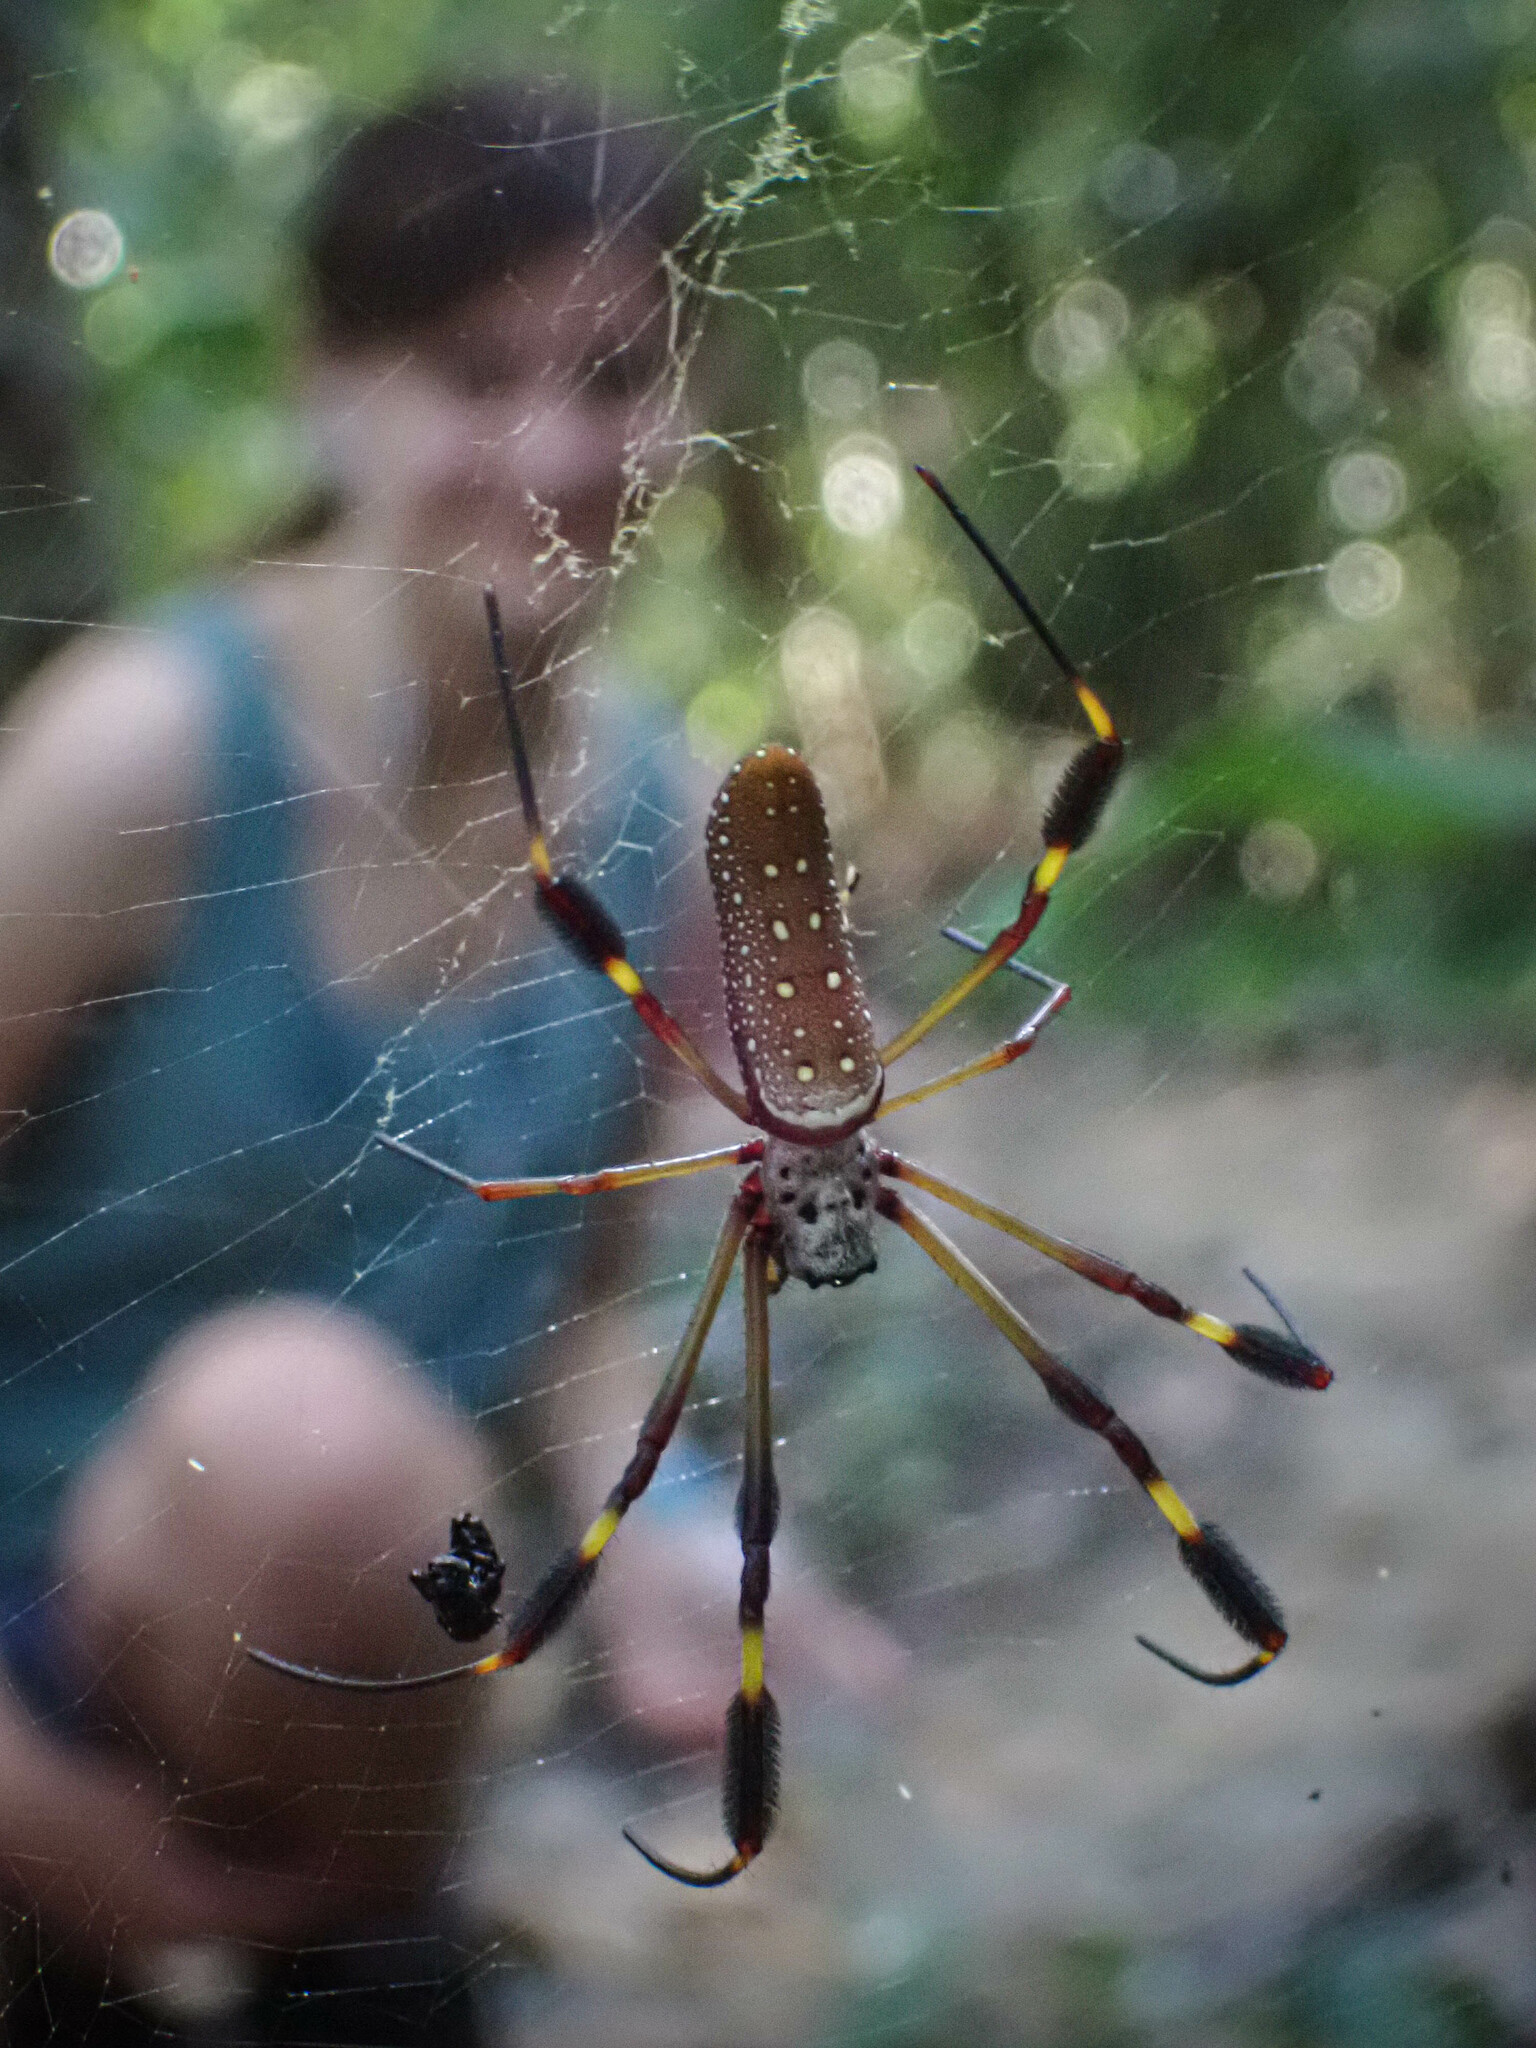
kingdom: Animalia
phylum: Arthropoda
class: Arachnida
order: Araneae
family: Araneidae
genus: Trichonephila
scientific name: Trichonephila clavipes
